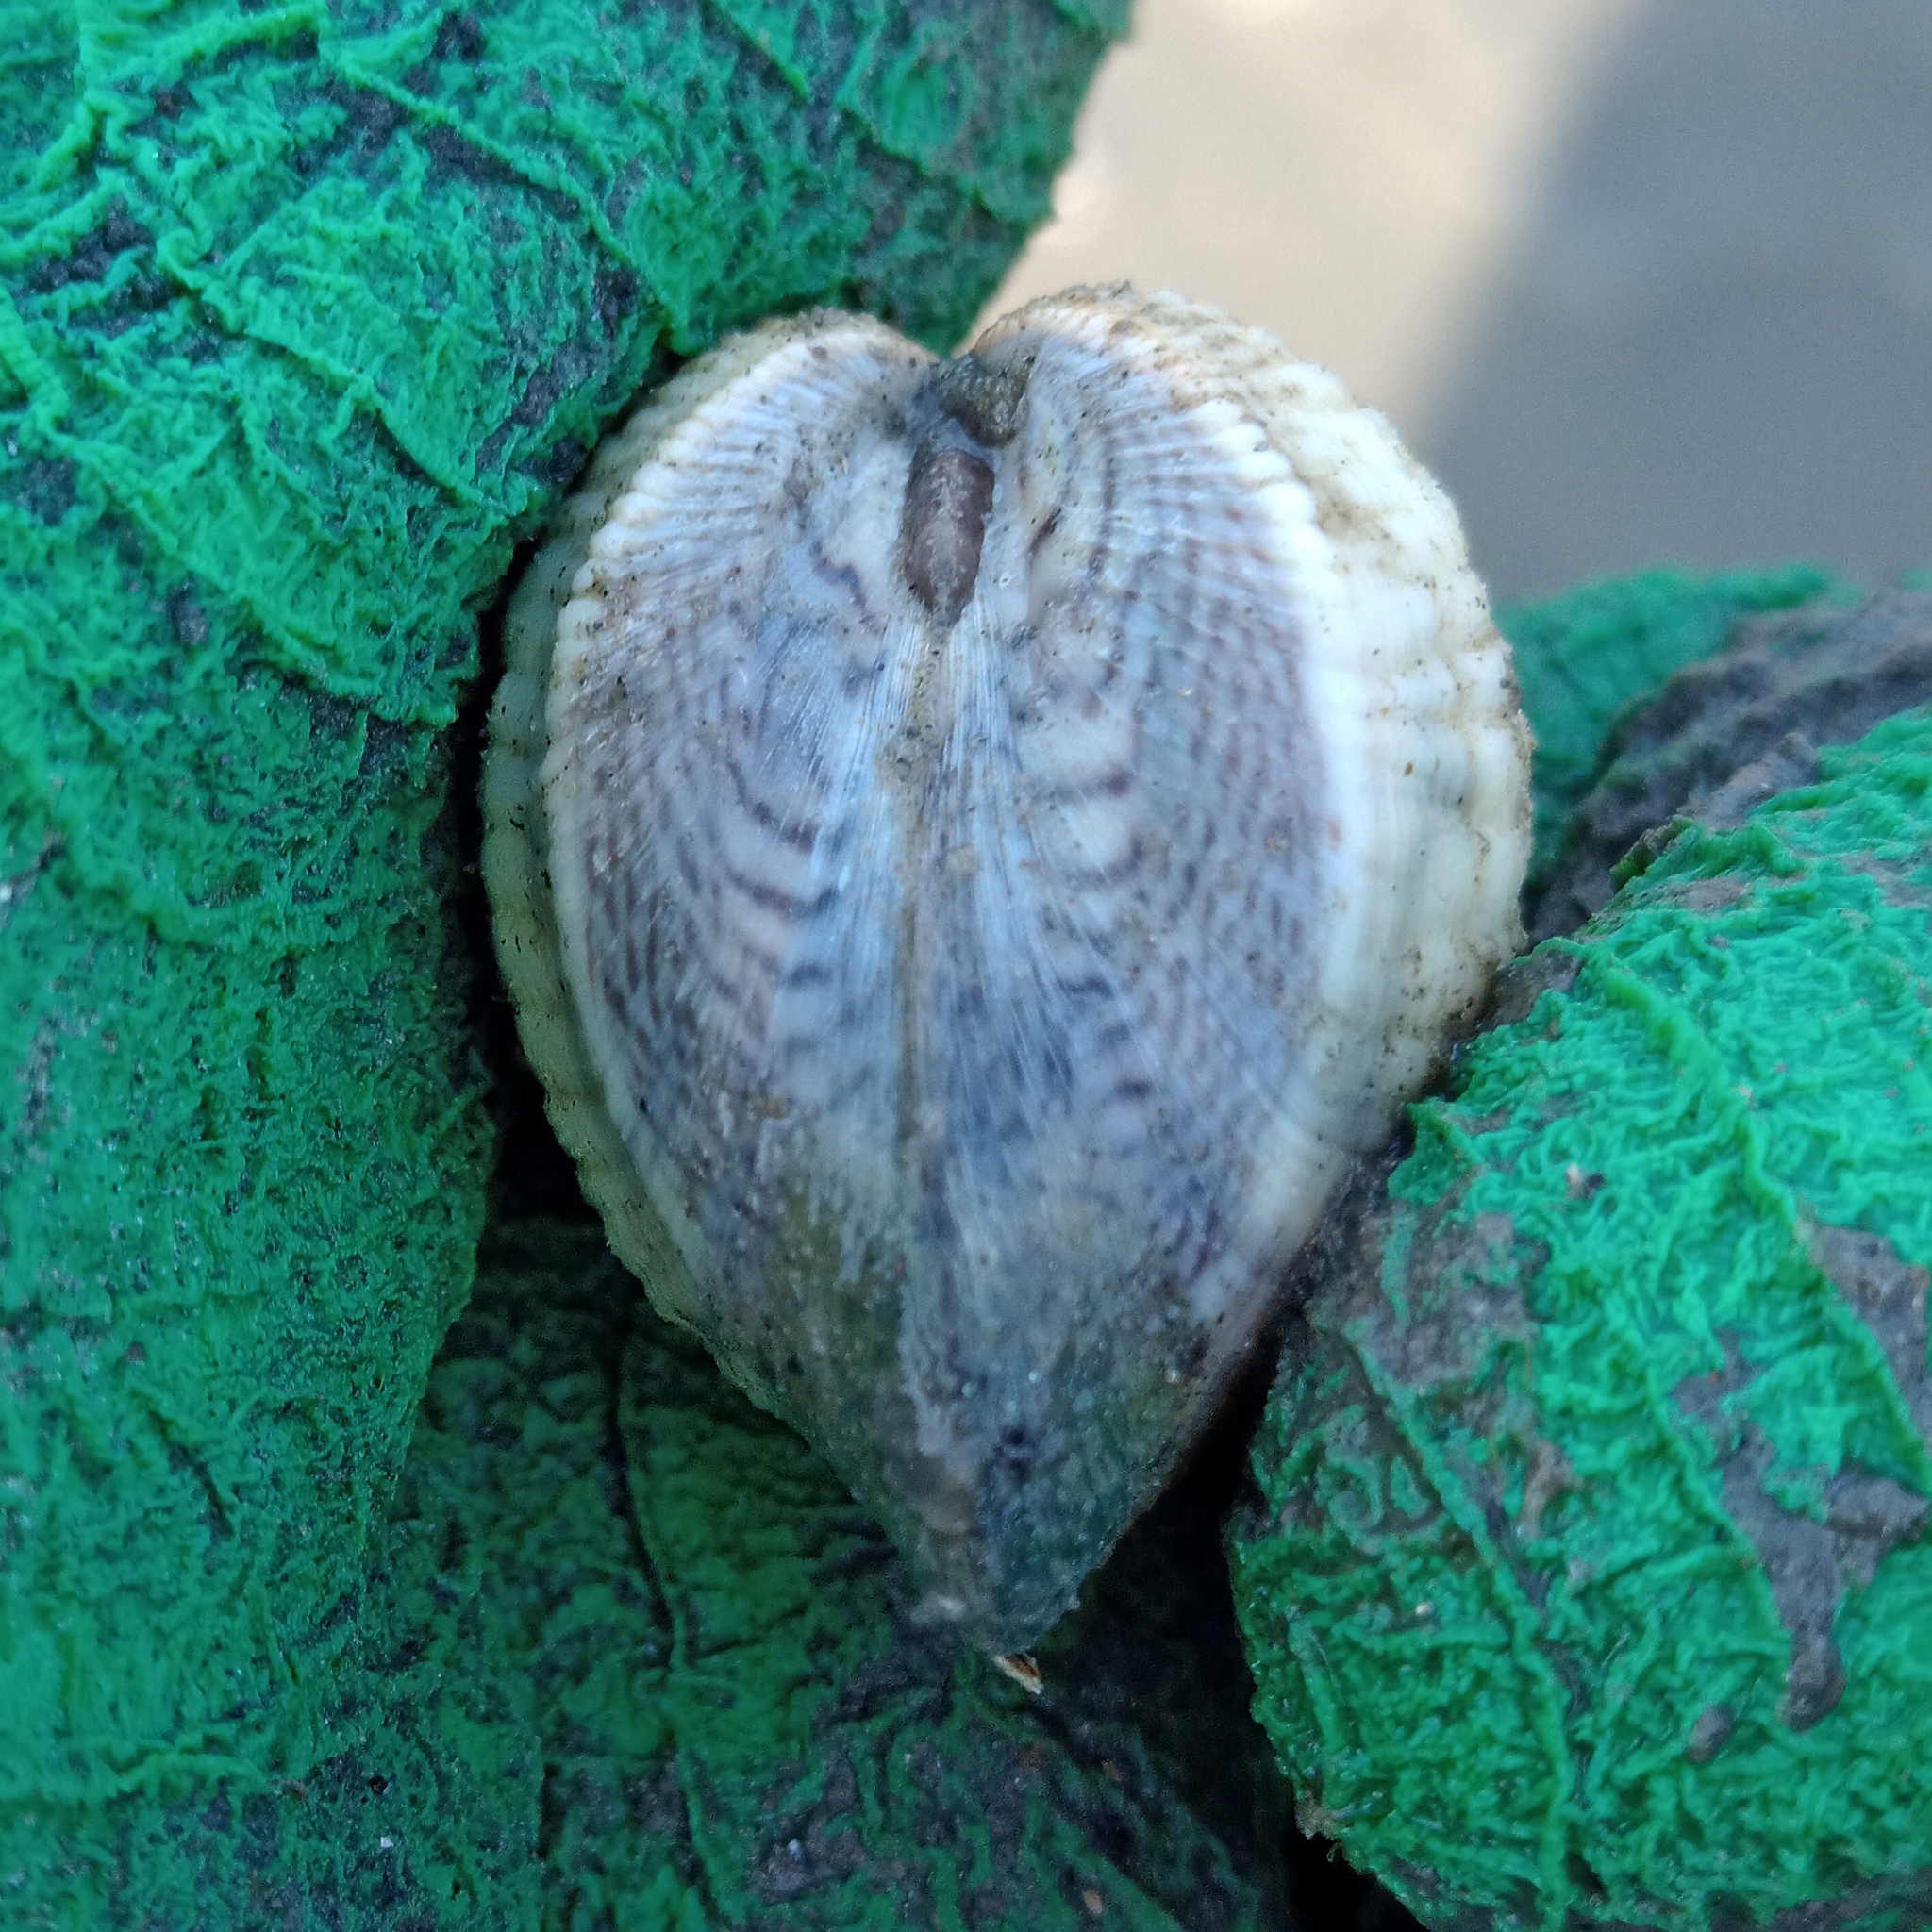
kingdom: Animalia
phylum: Mollusca
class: Bivalvia
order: Venerida
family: Veneridae
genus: Anomalocardia
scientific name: Anomalocardia flexuosa
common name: Carib pointed venus
